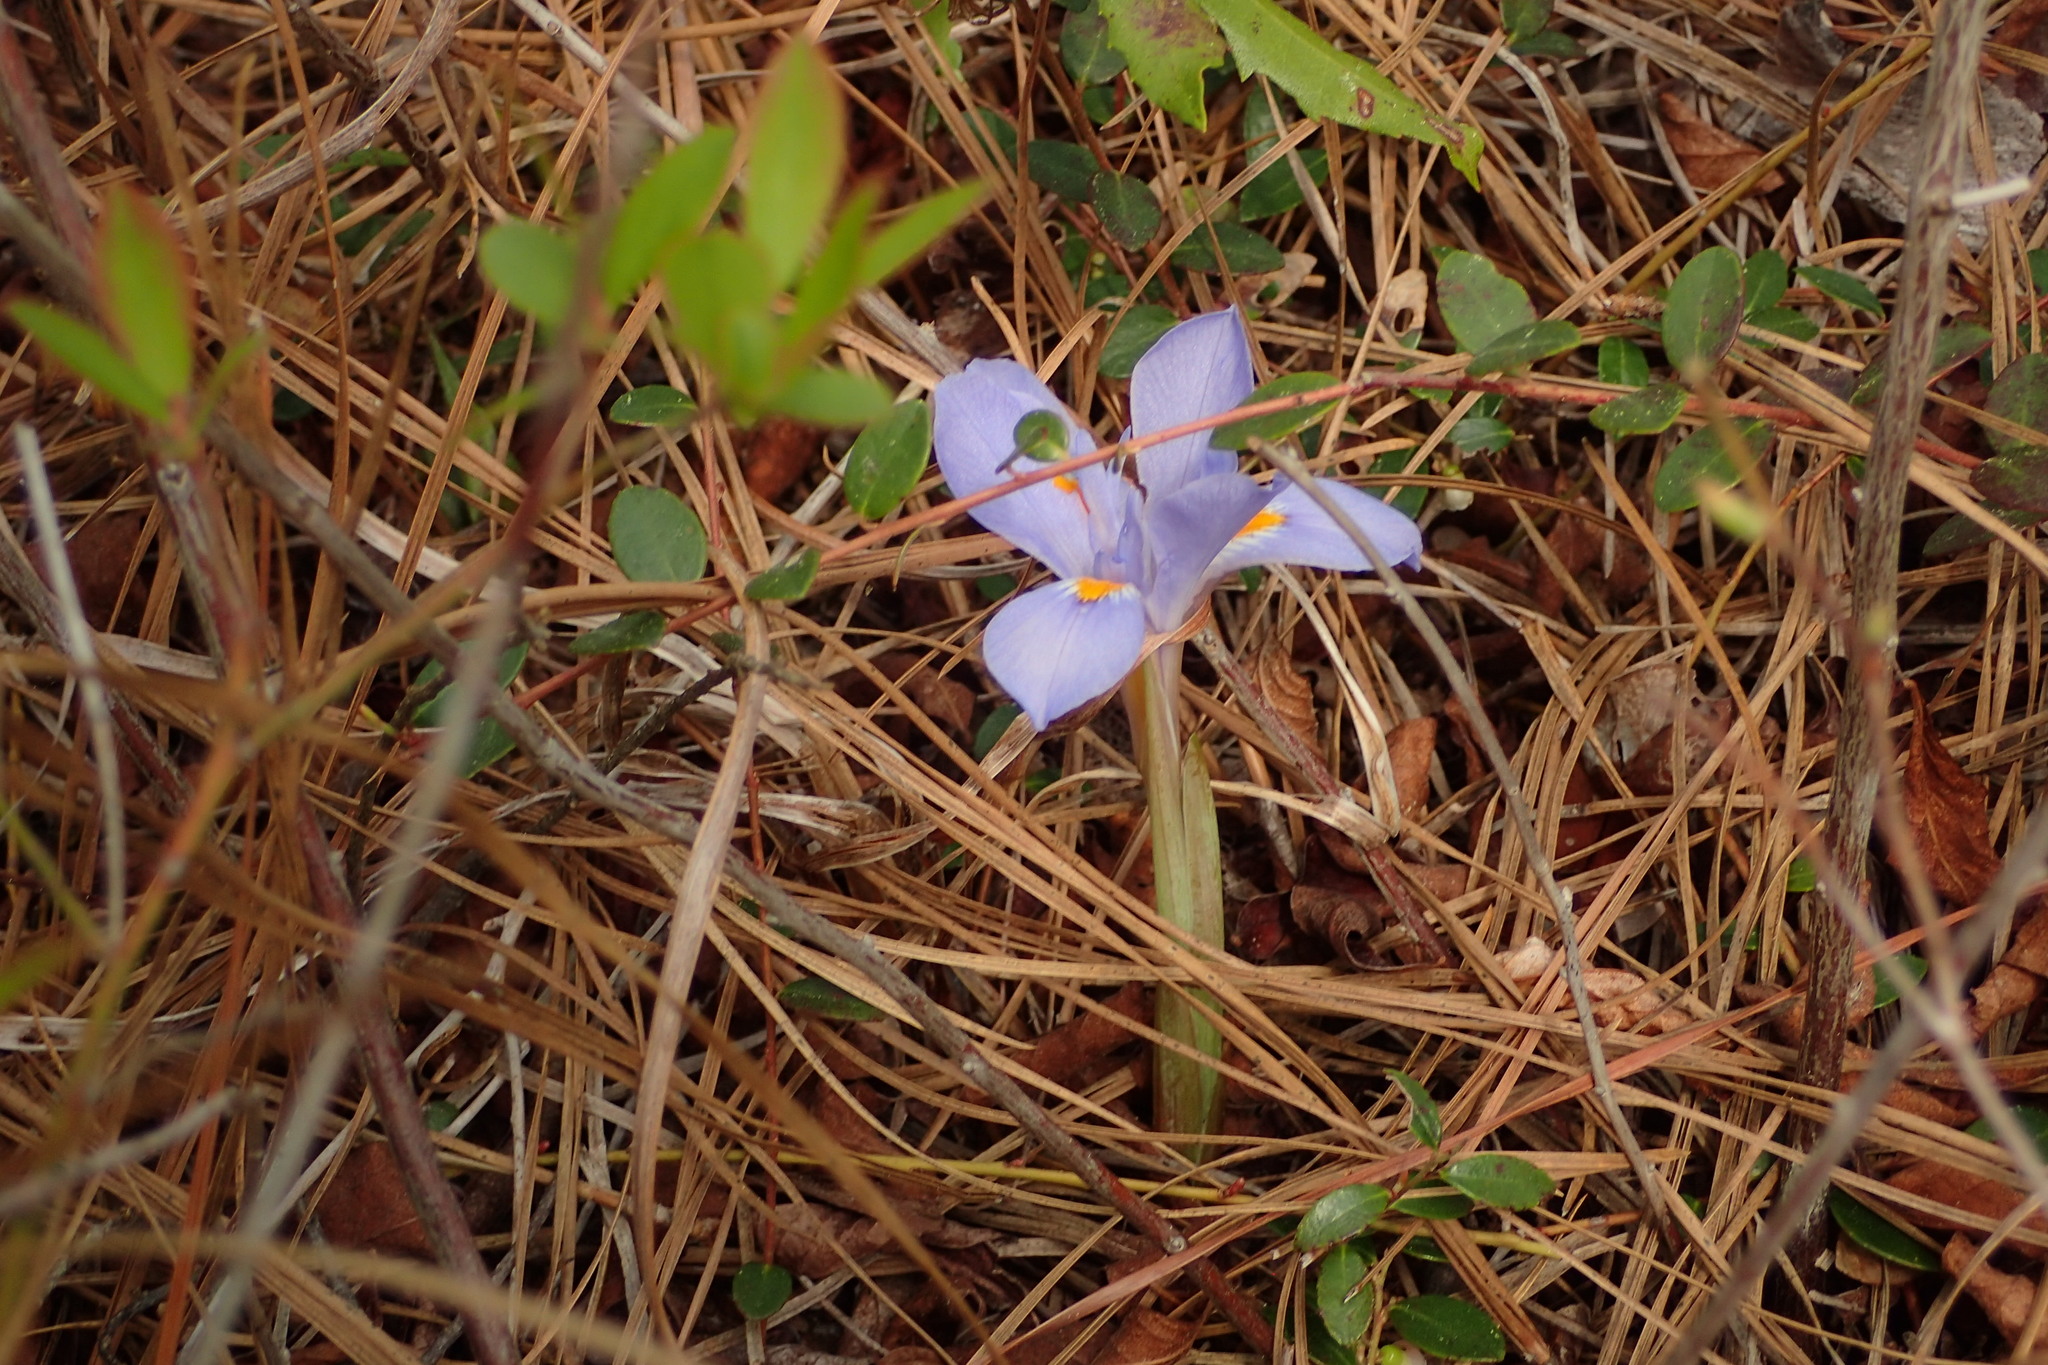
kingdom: Plantae
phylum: Tracheophyta
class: Liliopsida
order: Asparagales
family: Iridaceae
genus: Iris
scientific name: Iris verna
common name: Dwarf iris
